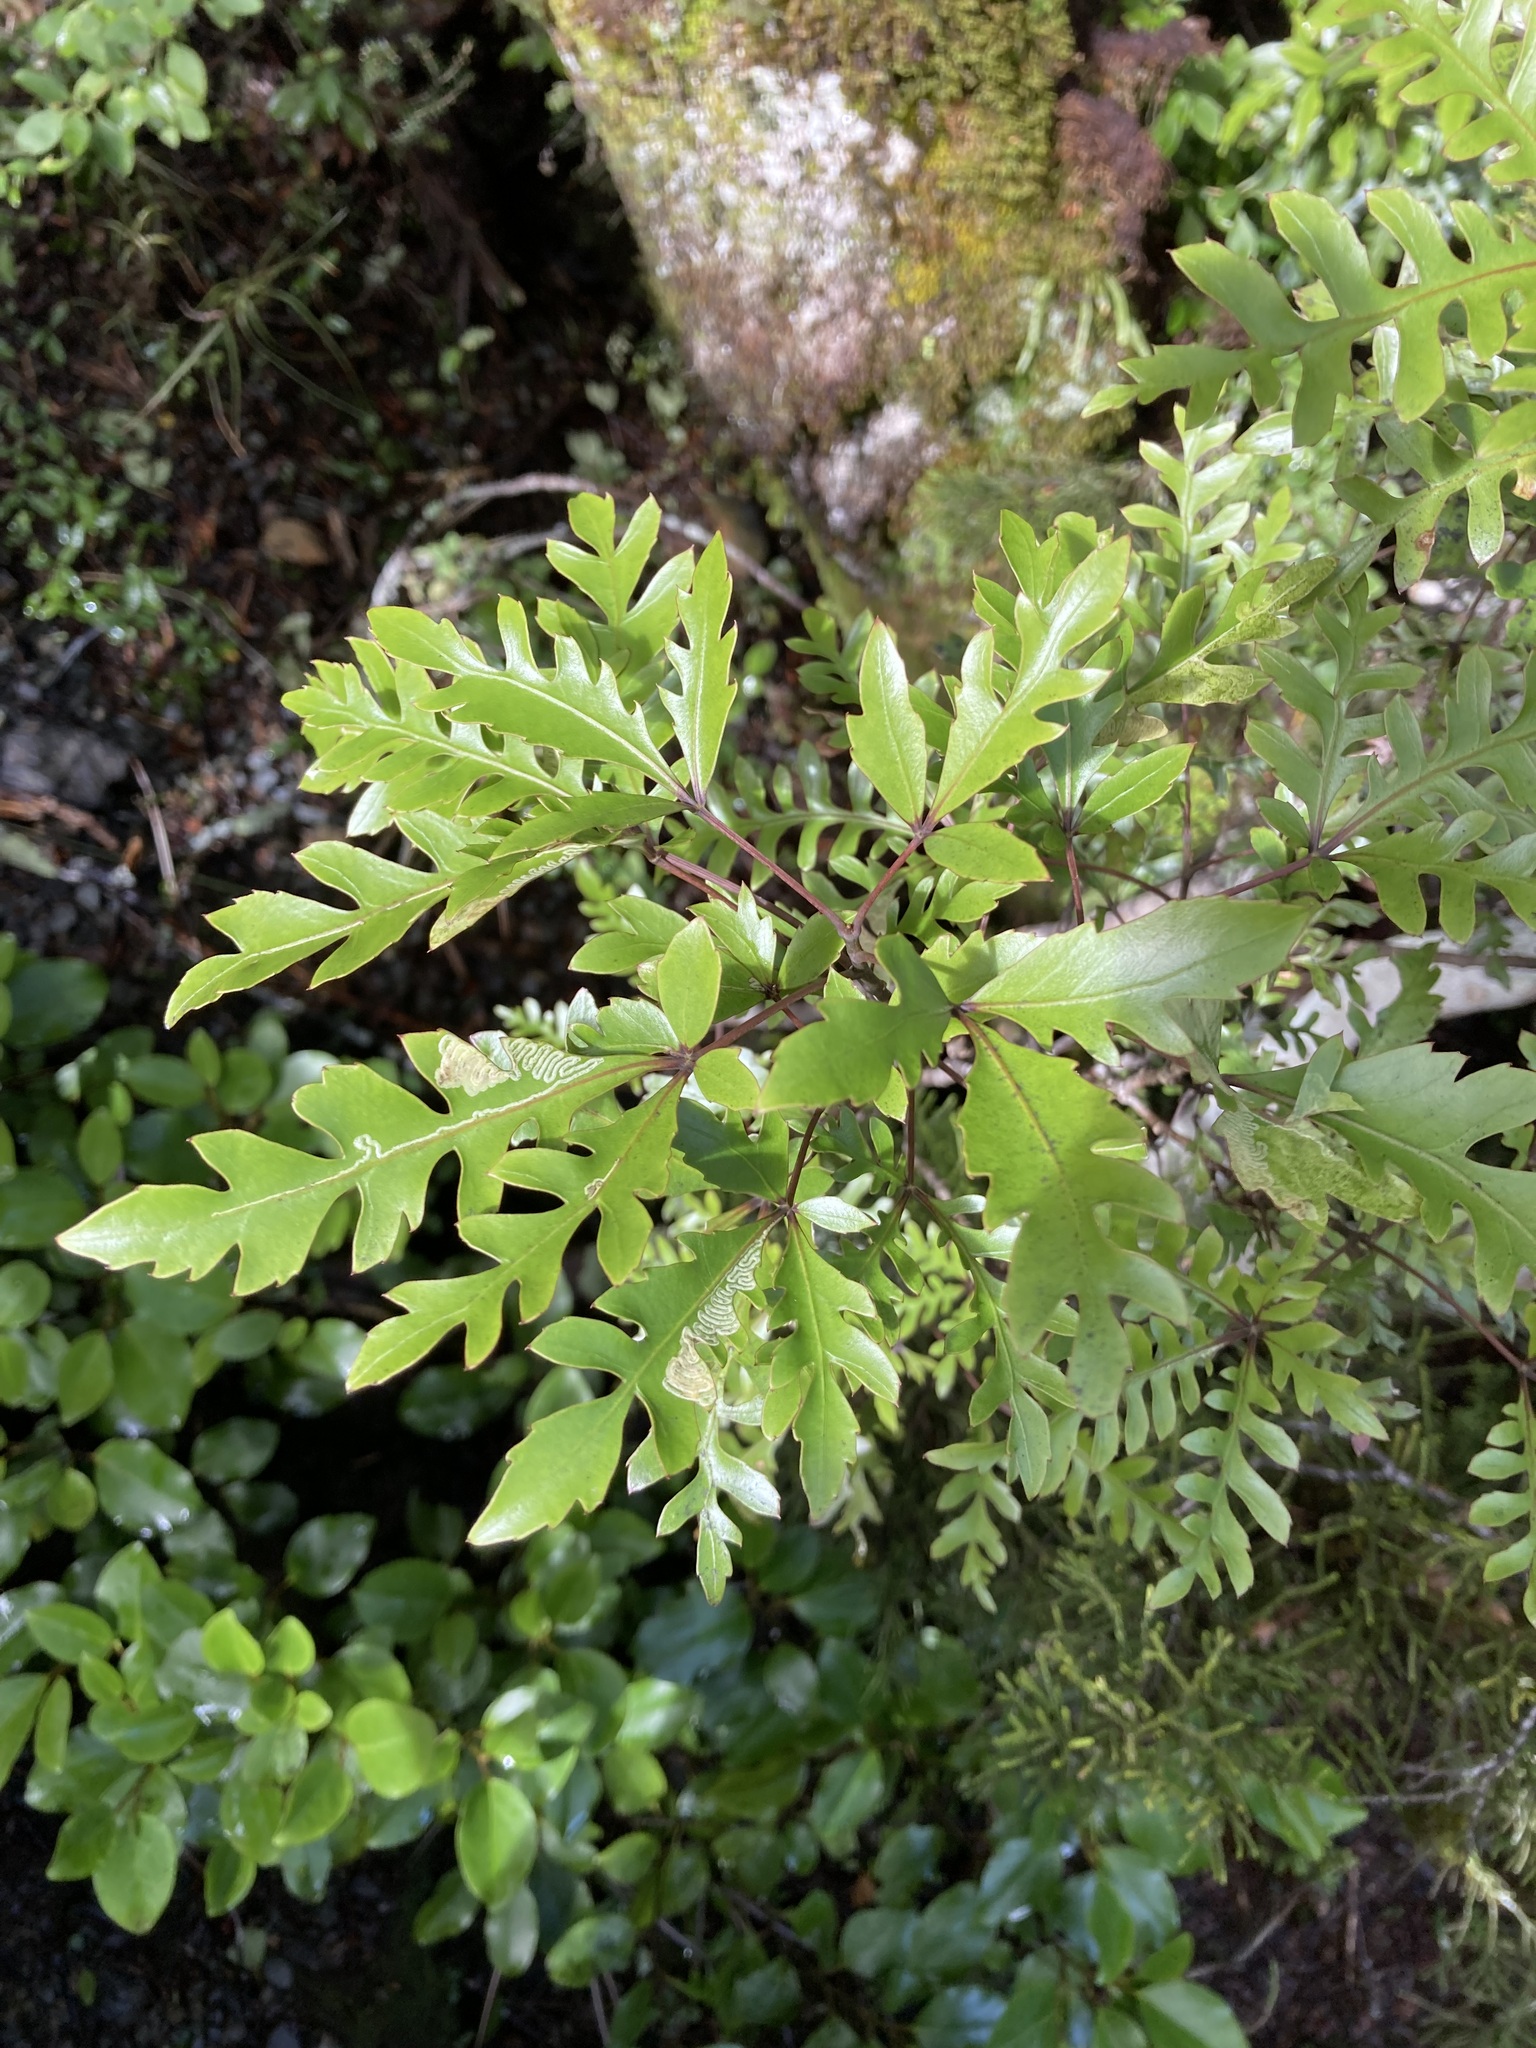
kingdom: Plantae
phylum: Tracheophyta
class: Magnoliopsida
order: Apiales
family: Araliaceae
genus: Raukaua
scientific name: Raukaua simplex
